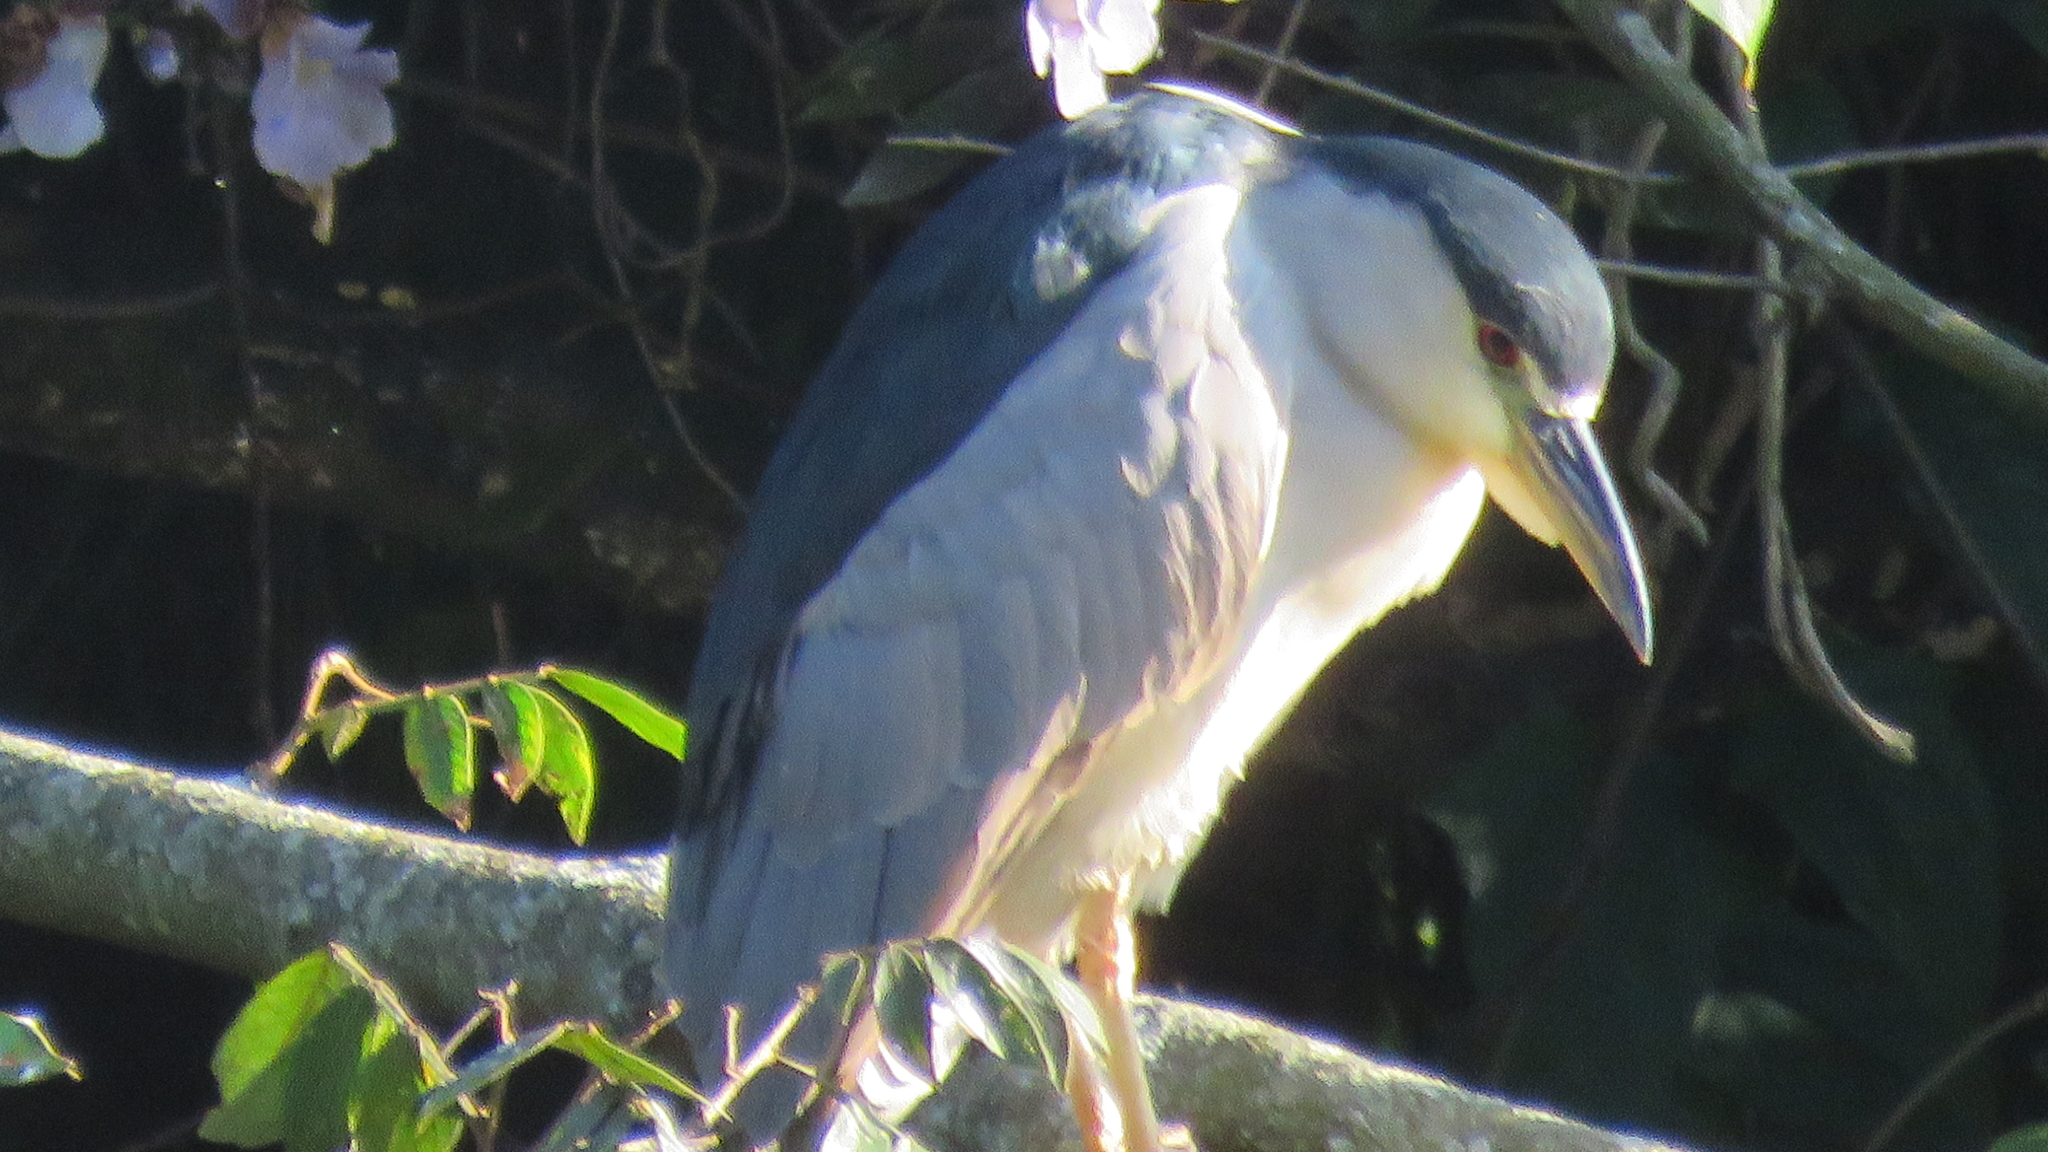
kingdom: Animalia
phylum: Chordata
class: Aves
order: Pelecaniformes
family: Ardeidae
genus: Nycticorax
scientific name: Nycticorax nycticorax
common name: Black-crowned night heron
